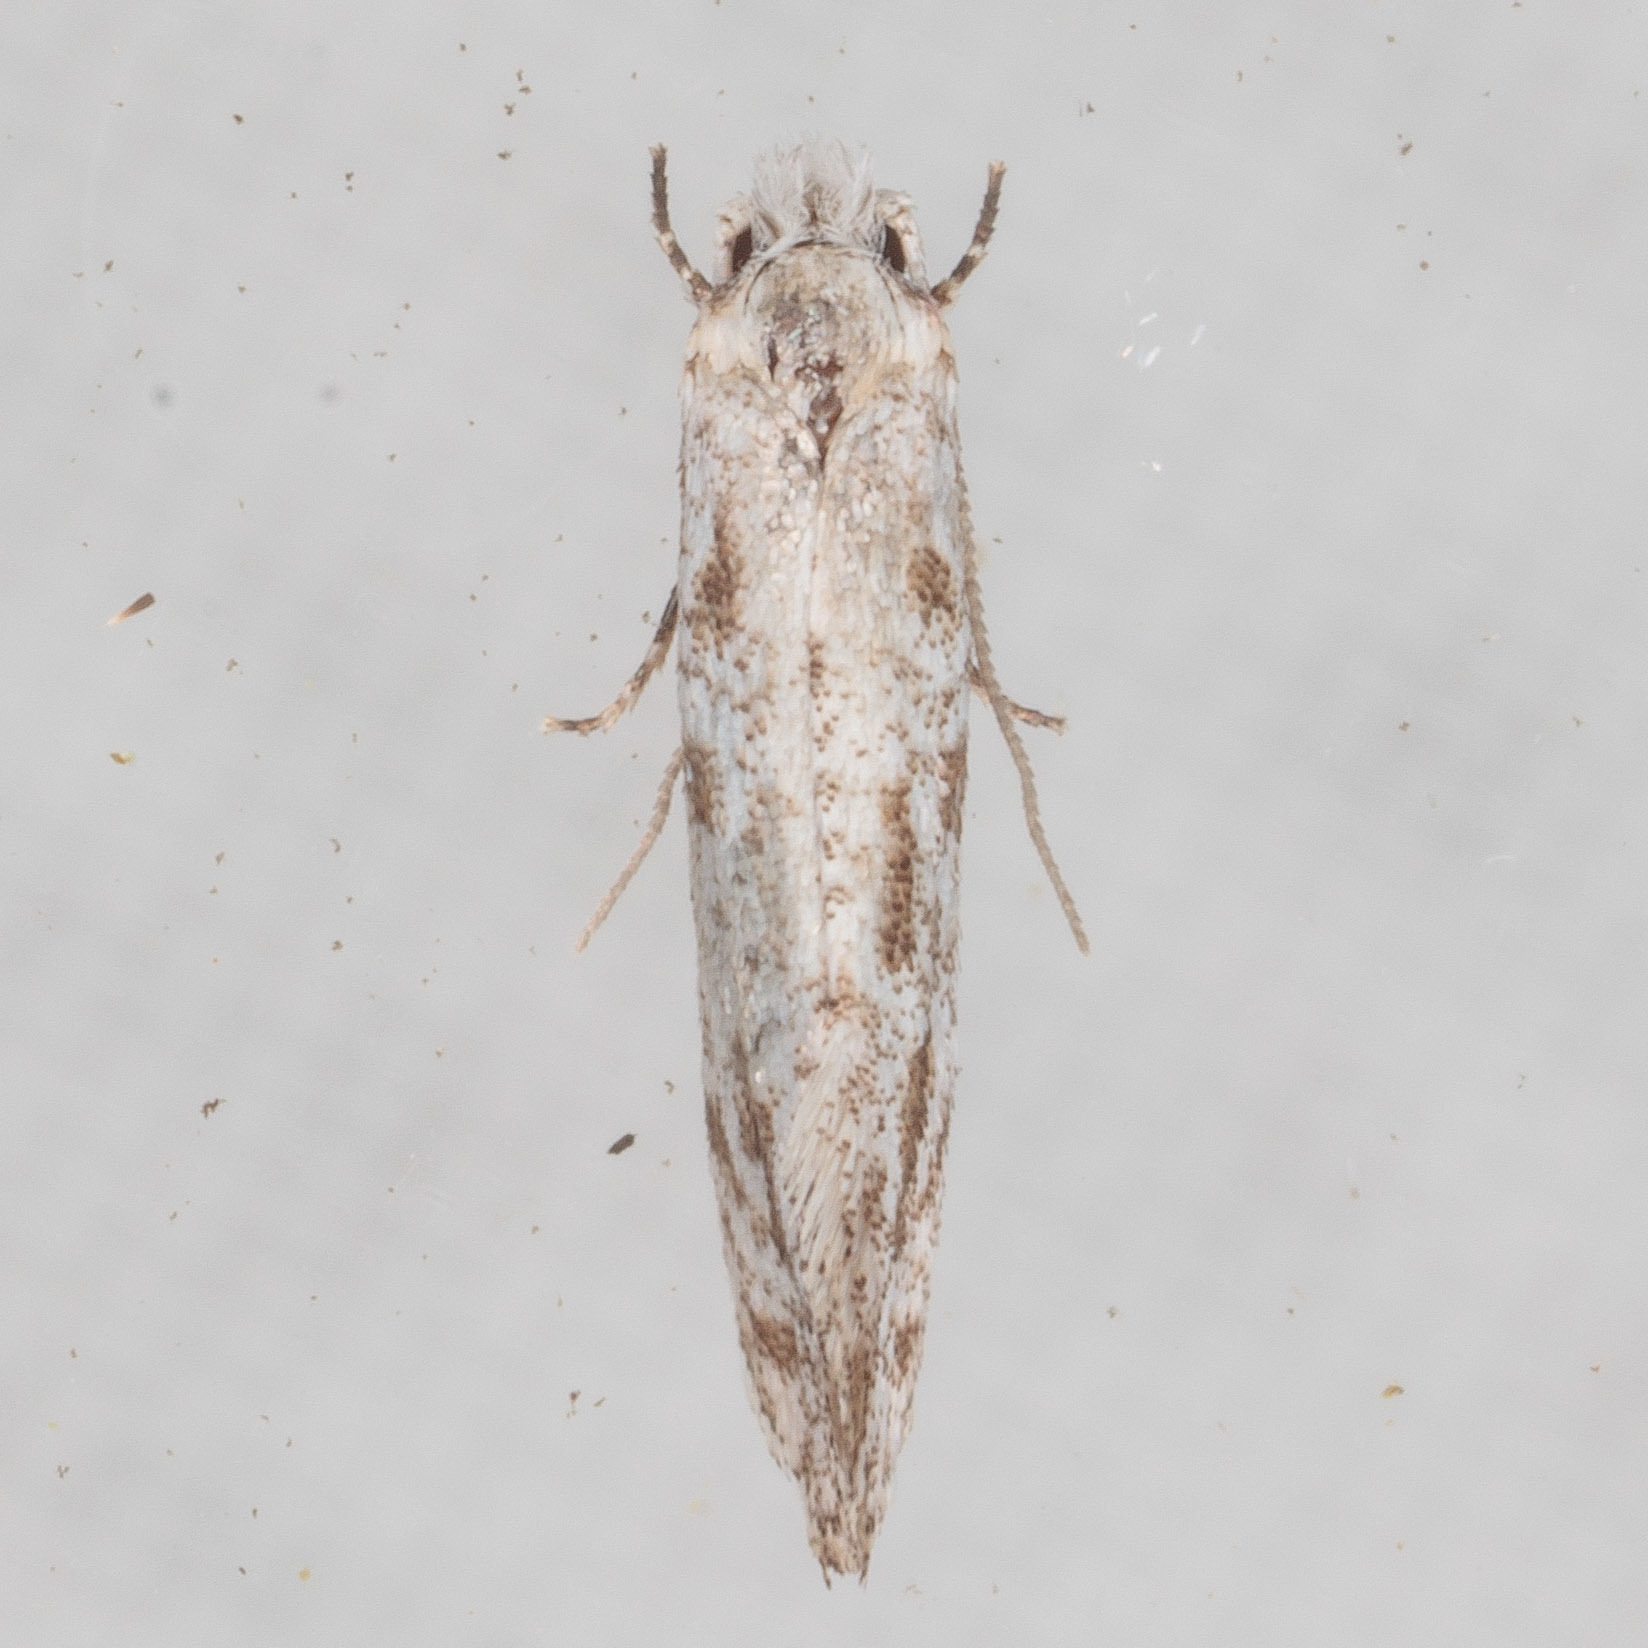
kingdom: Animalia
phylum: Arthropoda
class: Insecta
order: Lepidoptera
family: Meessiidae
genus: Diachorisia
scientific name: Diachorisia velatella
